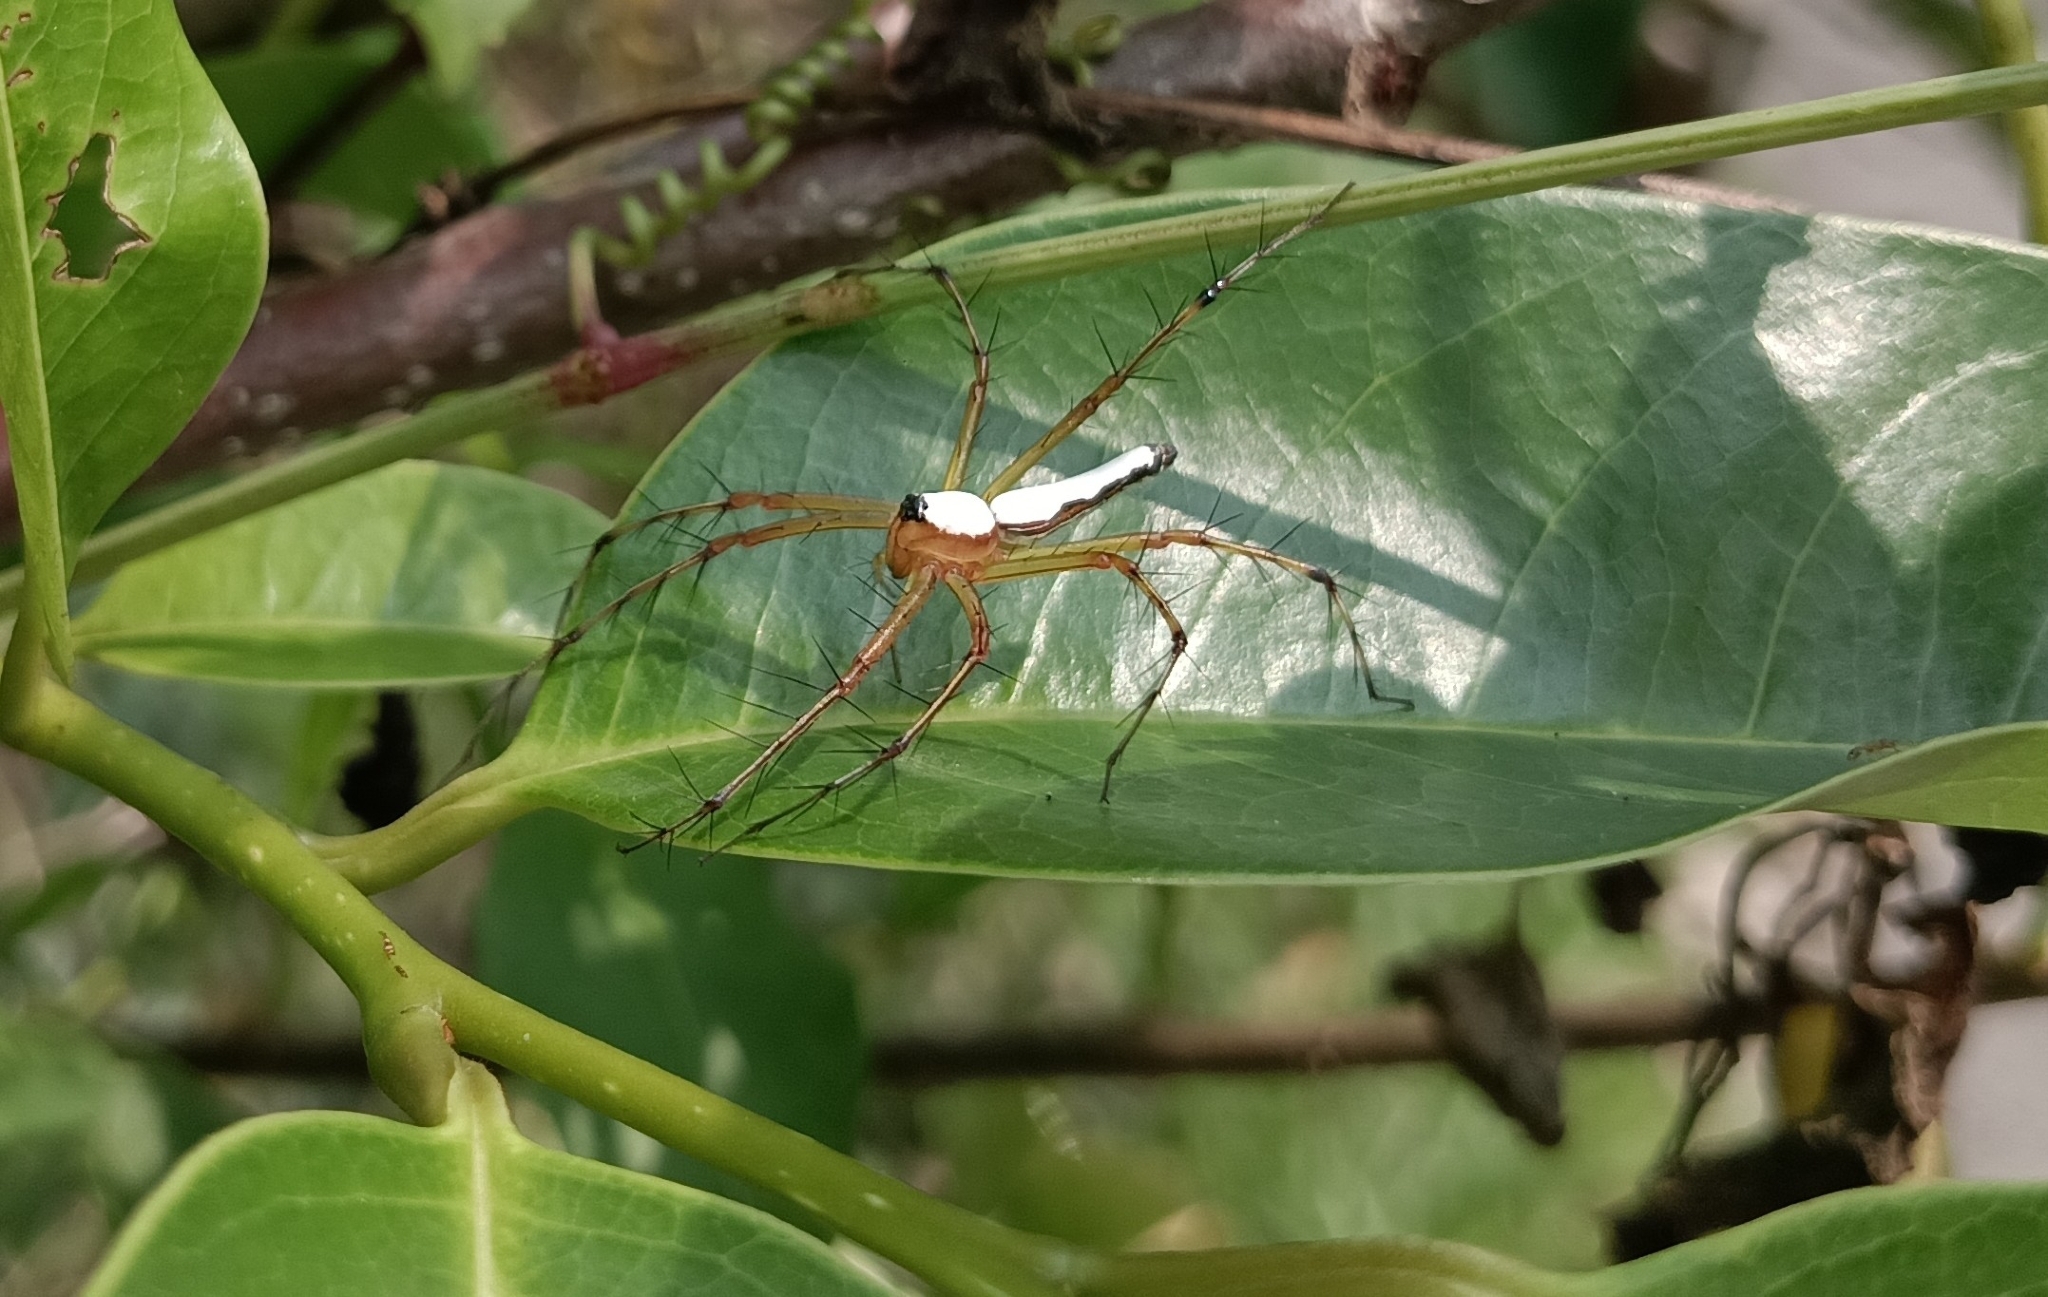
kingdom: Animalia
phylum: Arthropoda
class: Arachnida
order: Araneae
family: Oxyopidae
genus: Oxyopes
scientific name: Oxyopes shweta
